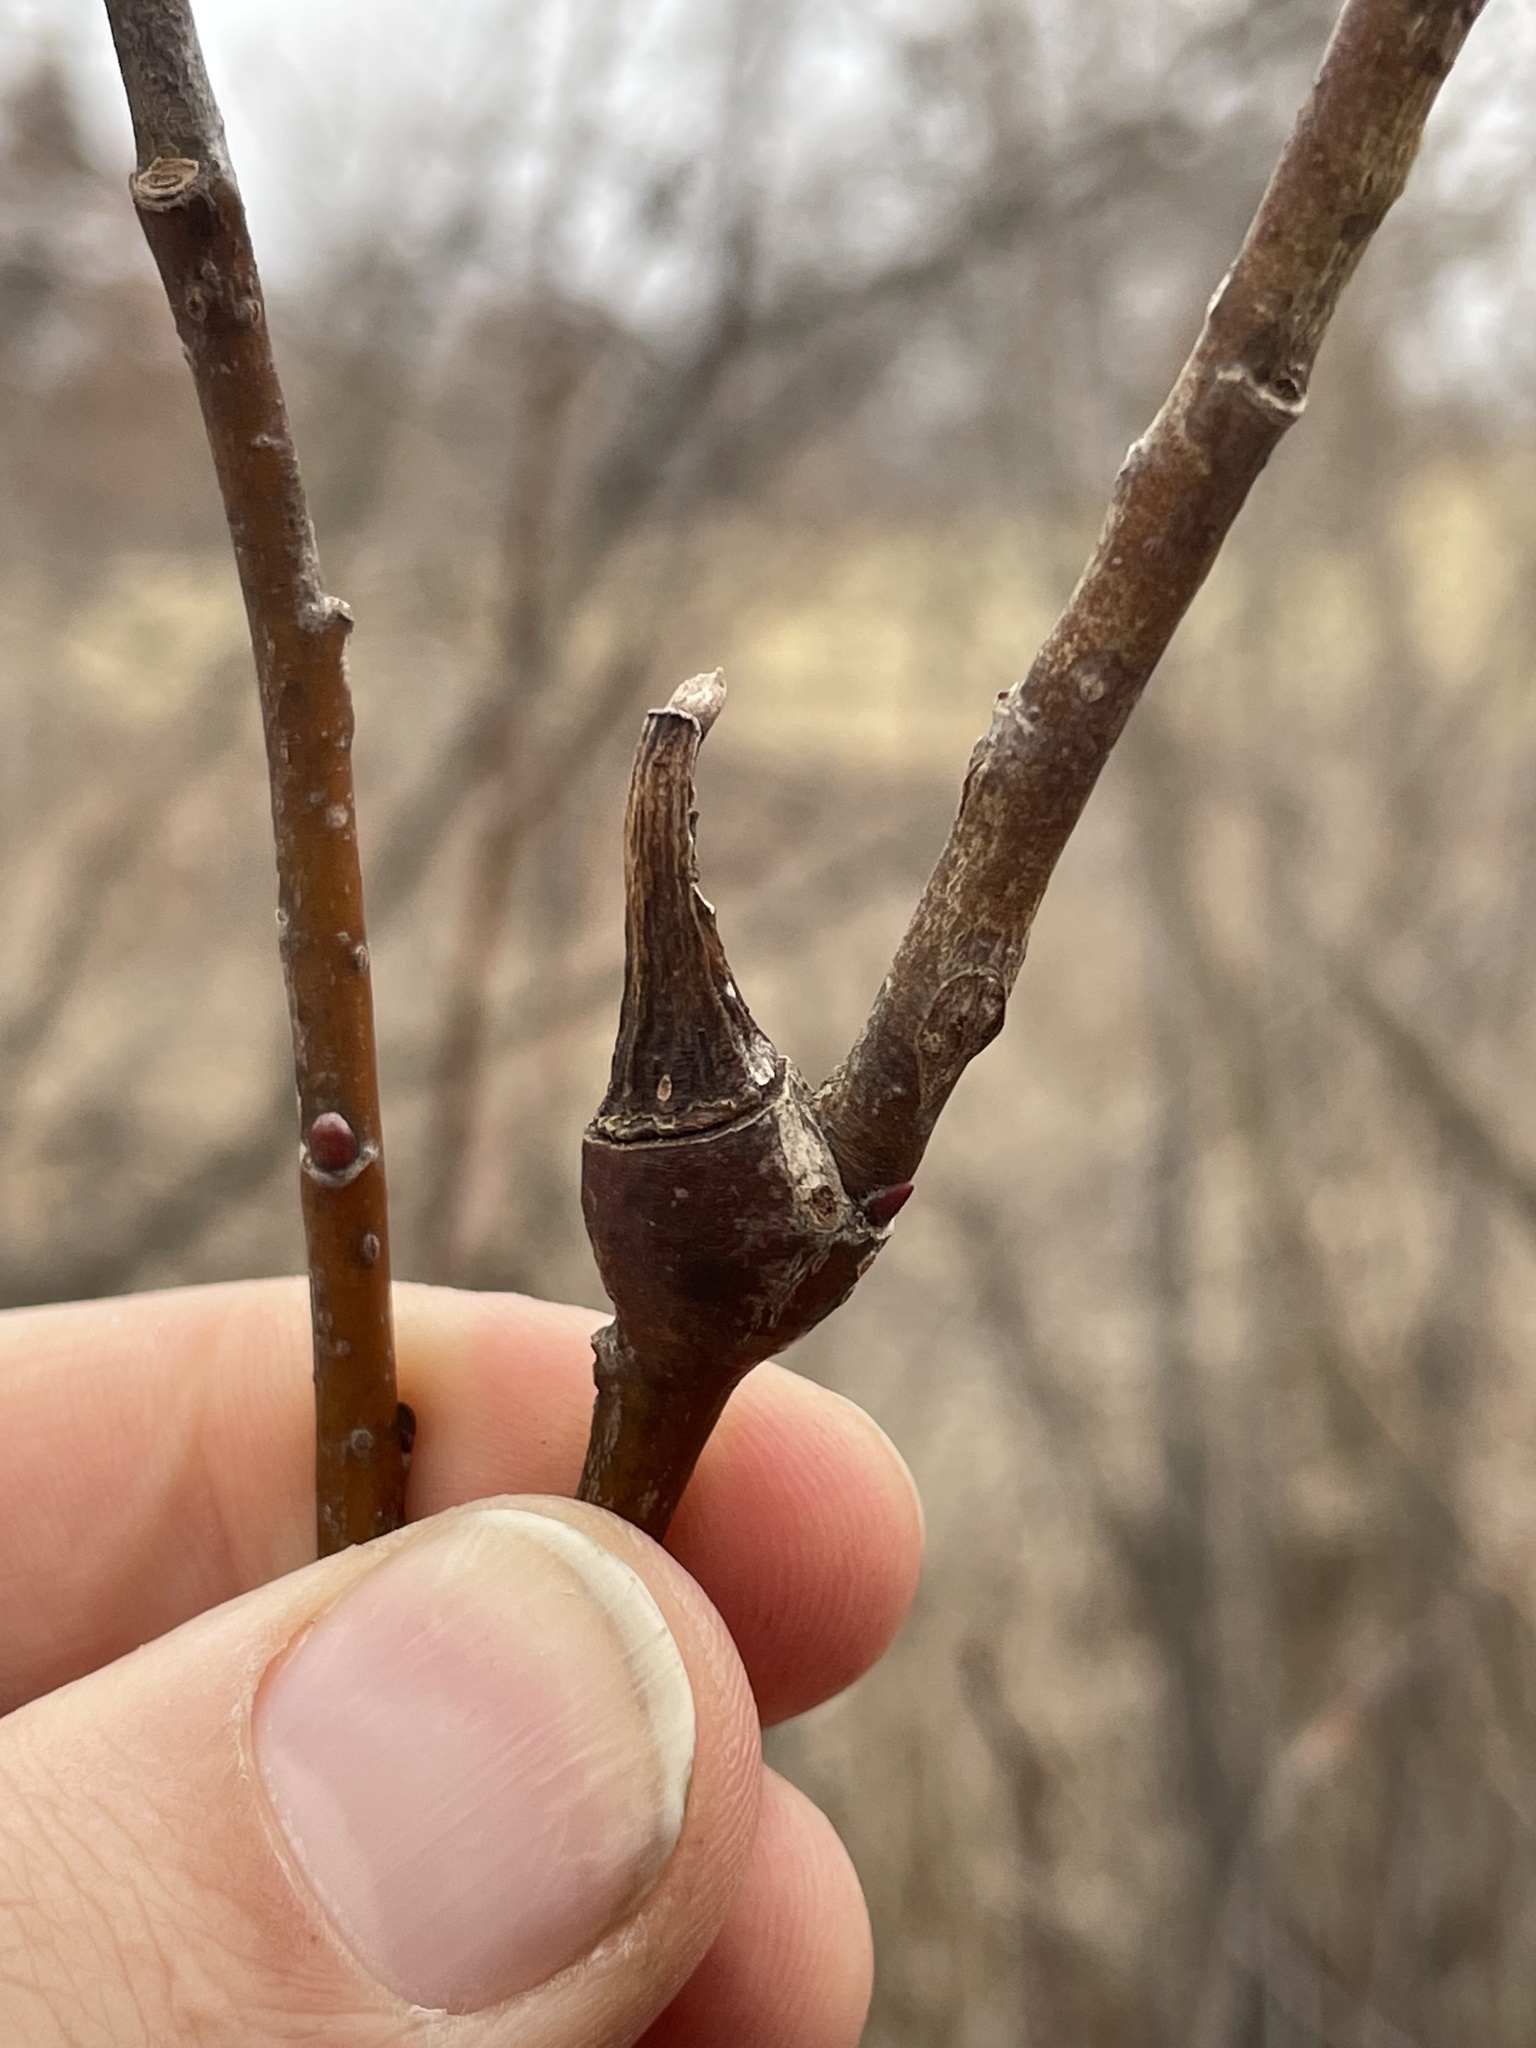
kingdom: Animalia
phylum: Arthropoda
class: Insecta
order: Diptera
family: Cecidomyiidae
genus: Thecodiplosis
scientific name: Thecodiplosis pinirigidae
